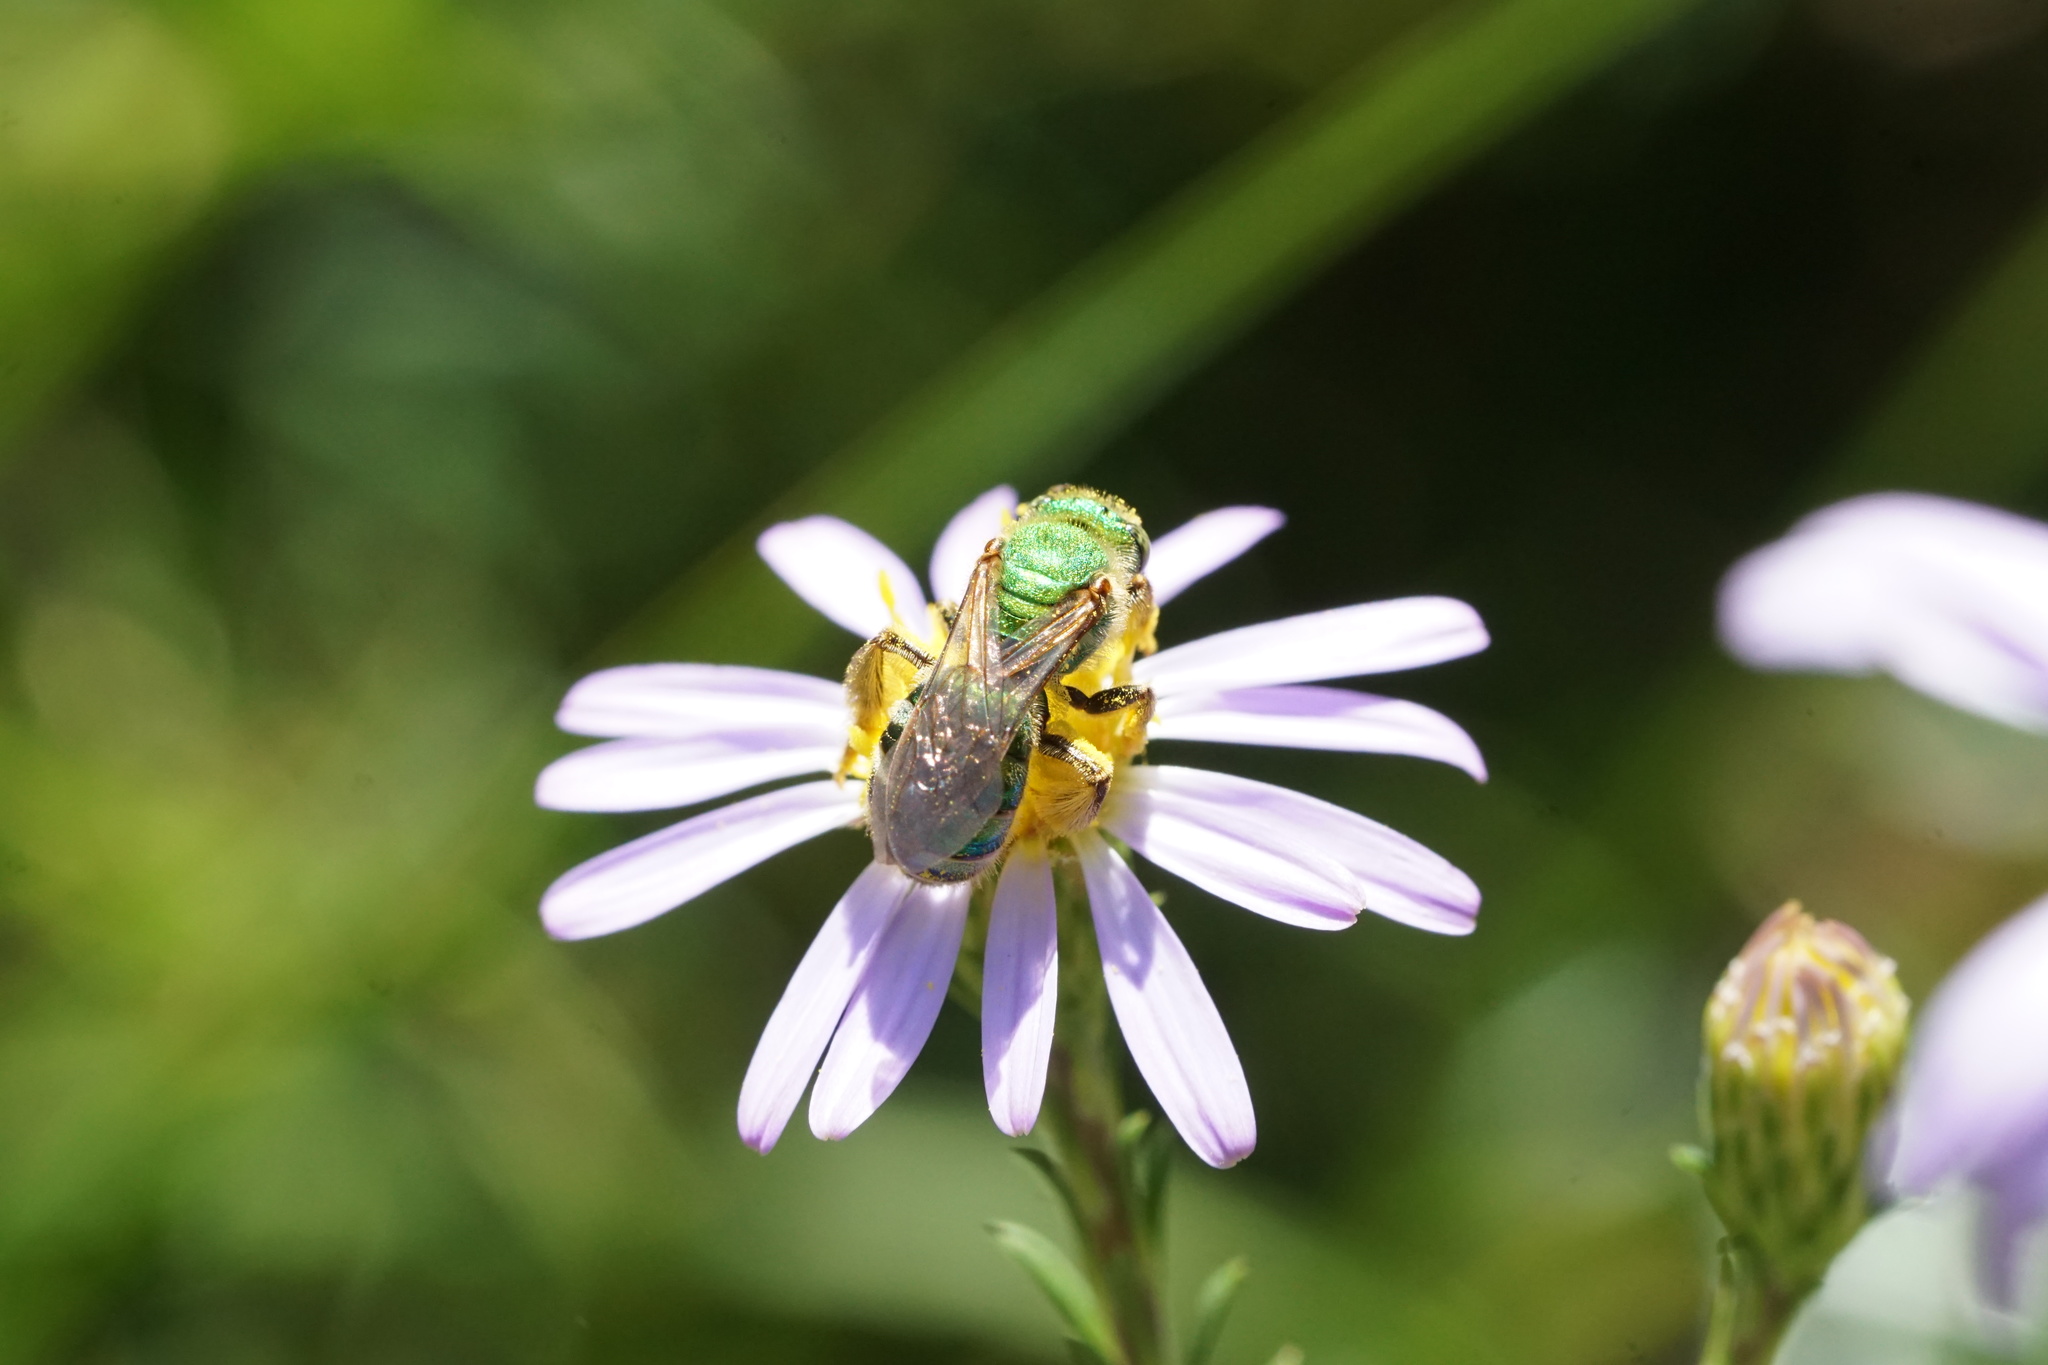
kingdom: Animalia
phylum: Arthropoda
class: Insecta
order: Hymenoptera
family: Halictidae
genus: Agapostemon
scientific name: Agapostemon sericeus
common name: Silky striped sweat bee
